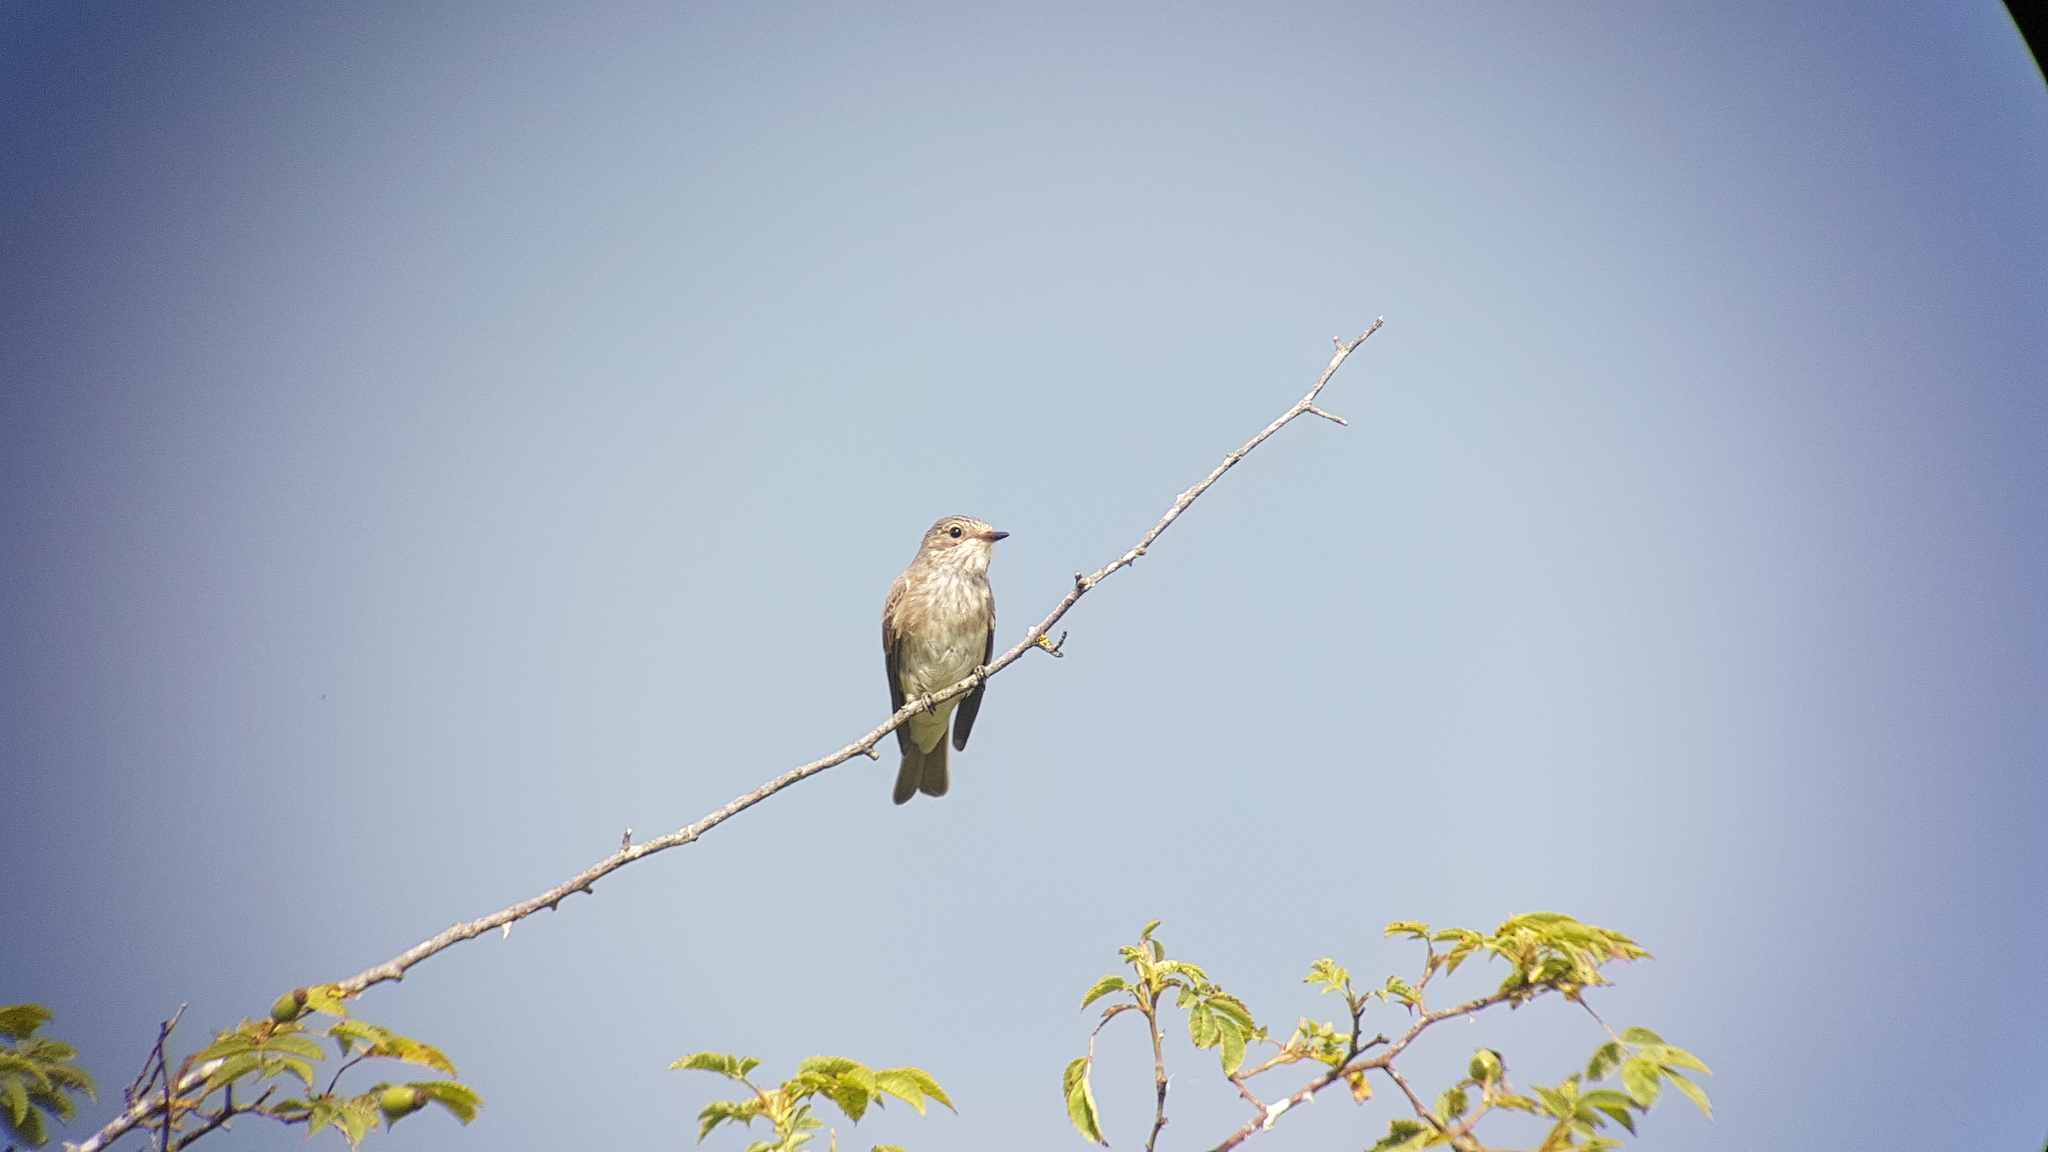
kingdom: Animalia
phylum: Chordata
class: Aves
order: Passeriformes
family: Muscicapidae
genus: Muscicapa
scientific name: Muscicapa striata
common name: Spotted flycatcher
